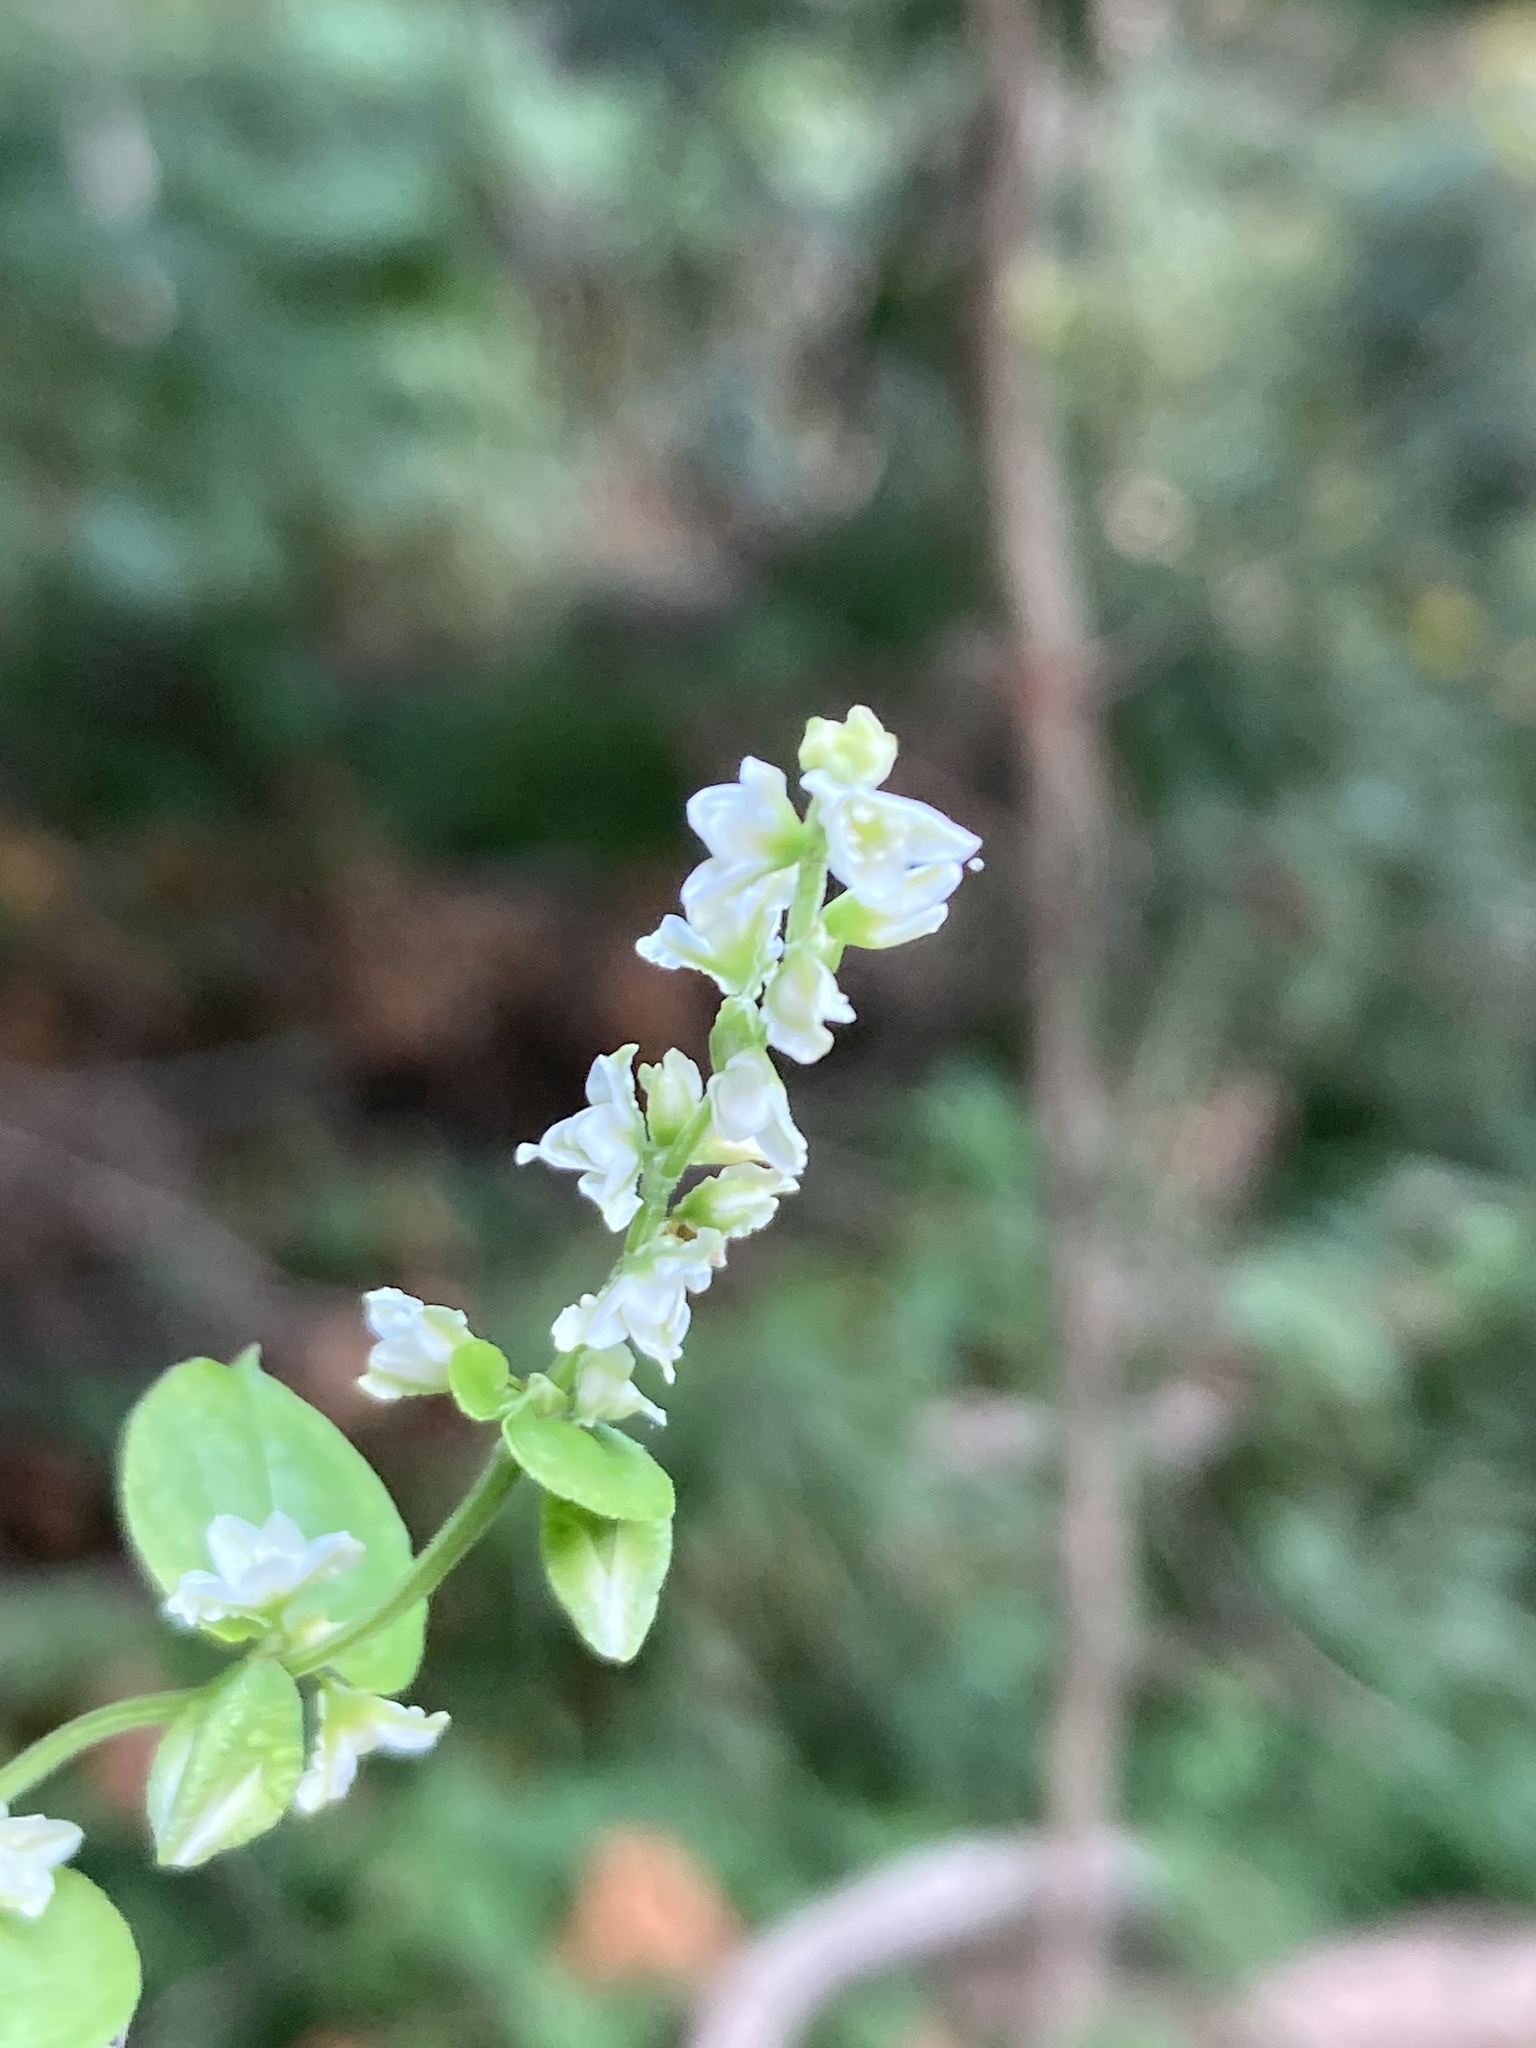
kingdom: Plantae
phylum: Tracheophyta
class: Magnoliopsida
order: Caryophyllales
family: Polygonaceae
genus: Fallopia
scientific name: Fallopia scandens
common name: Climbing false buckwheat
